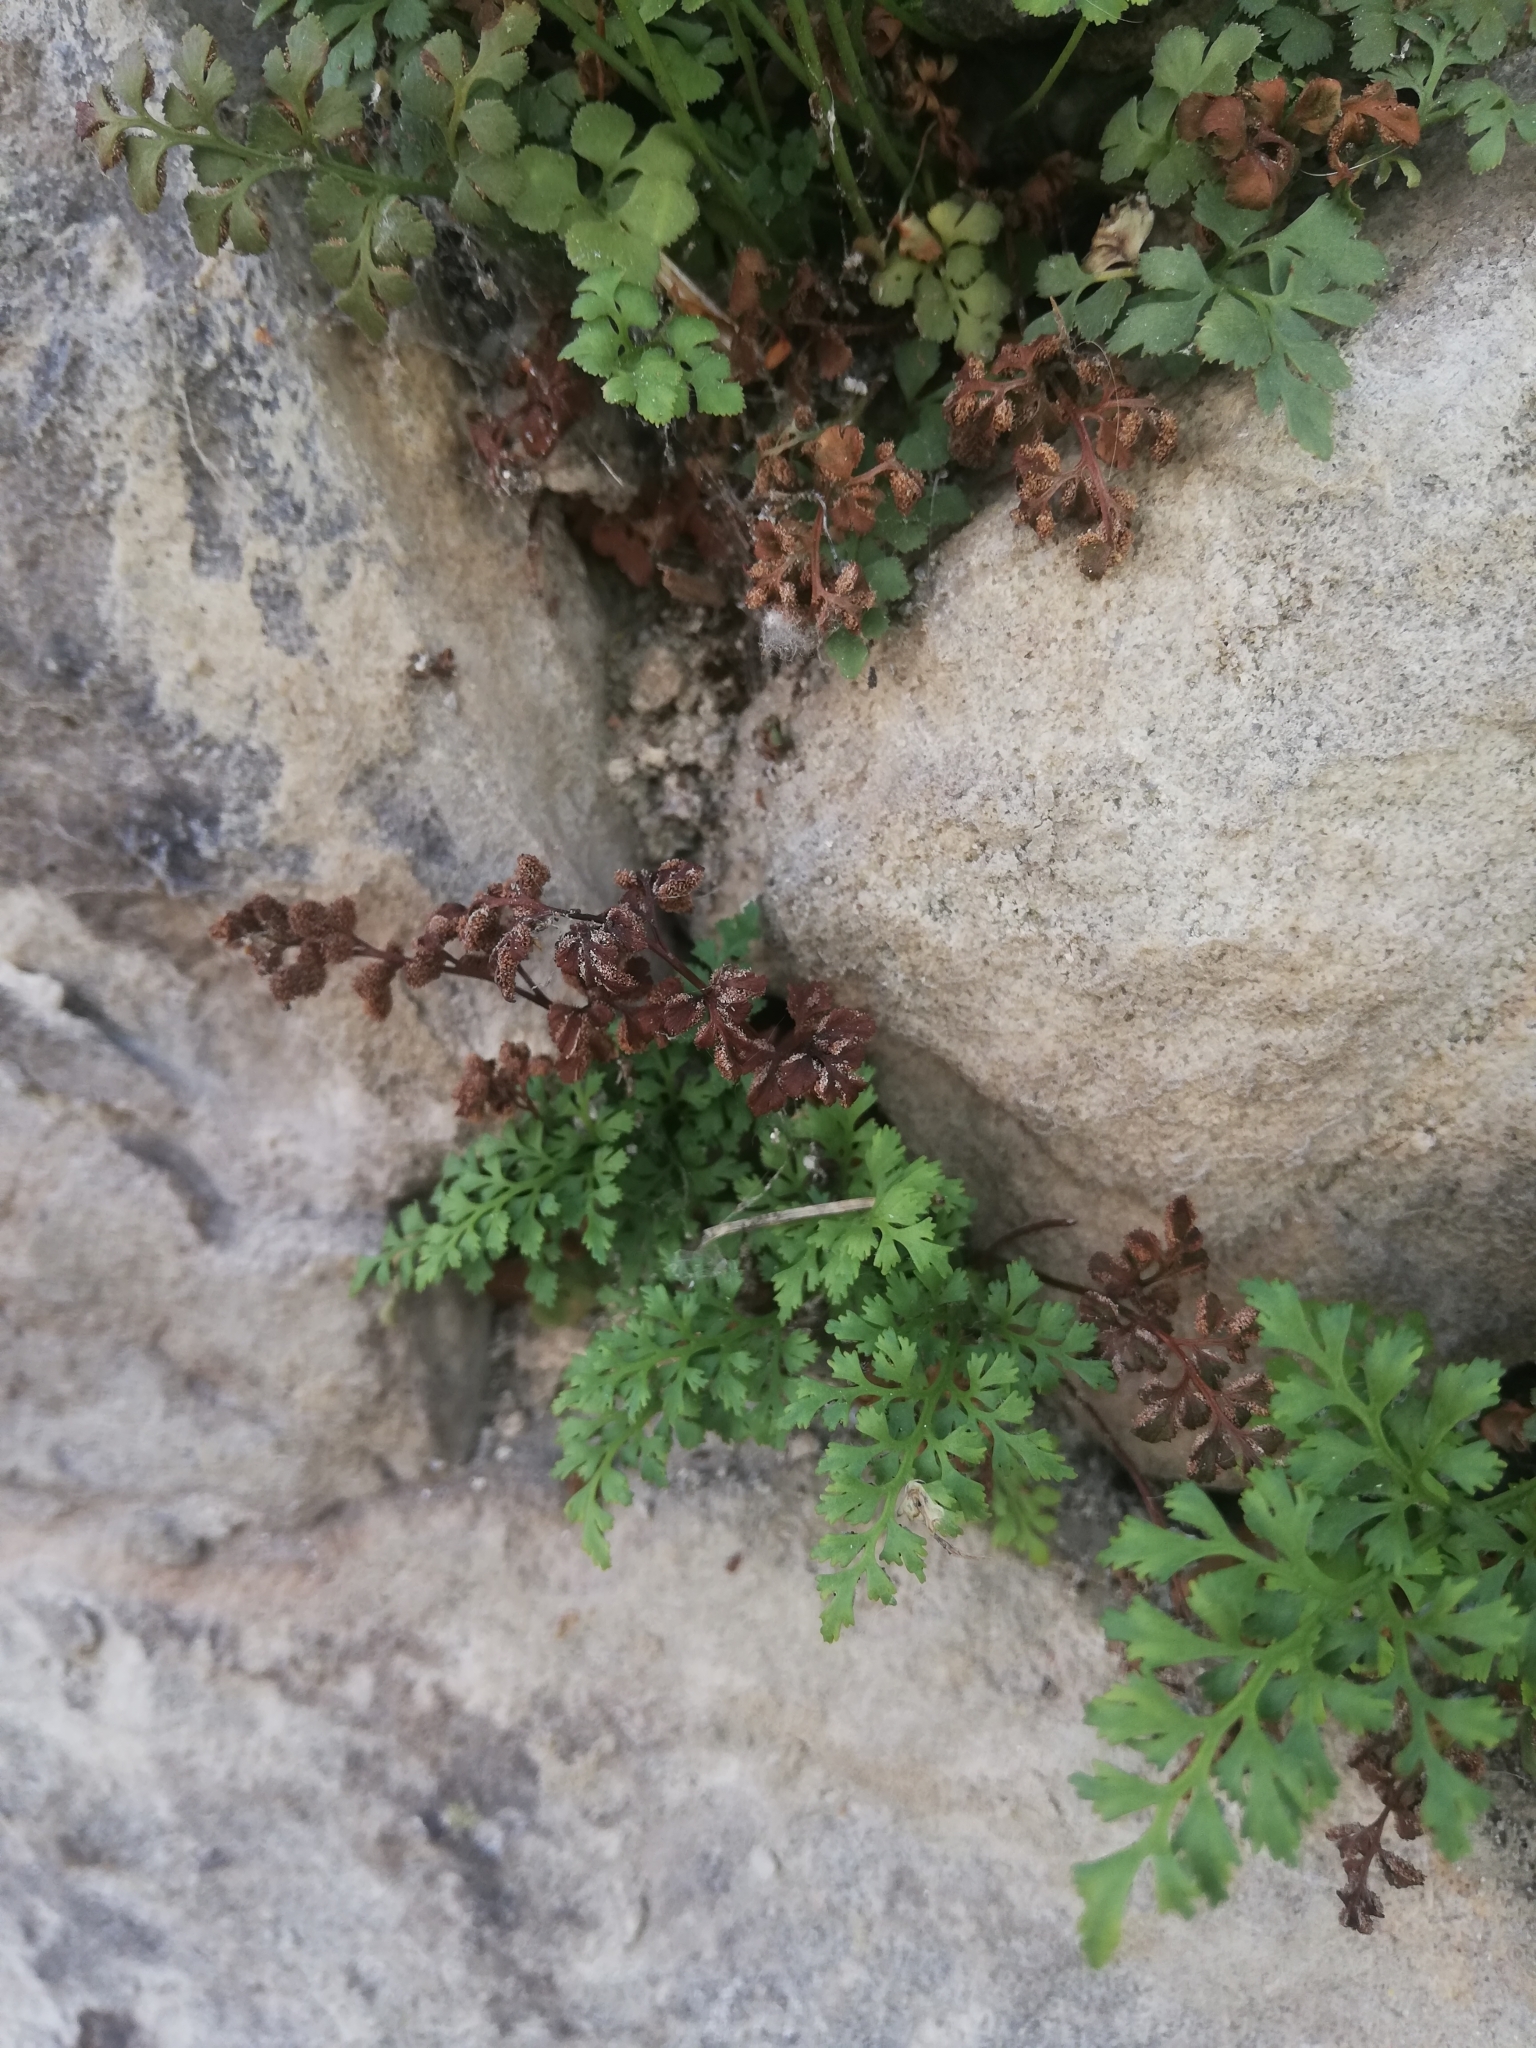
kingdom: Plantae
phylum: Tracheophyta
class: Polypodiopsida
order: Polypodiales
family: Aspleniaceae
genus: Asplenium
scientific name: Asplenium ruta-muraria
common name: Wall-rue
